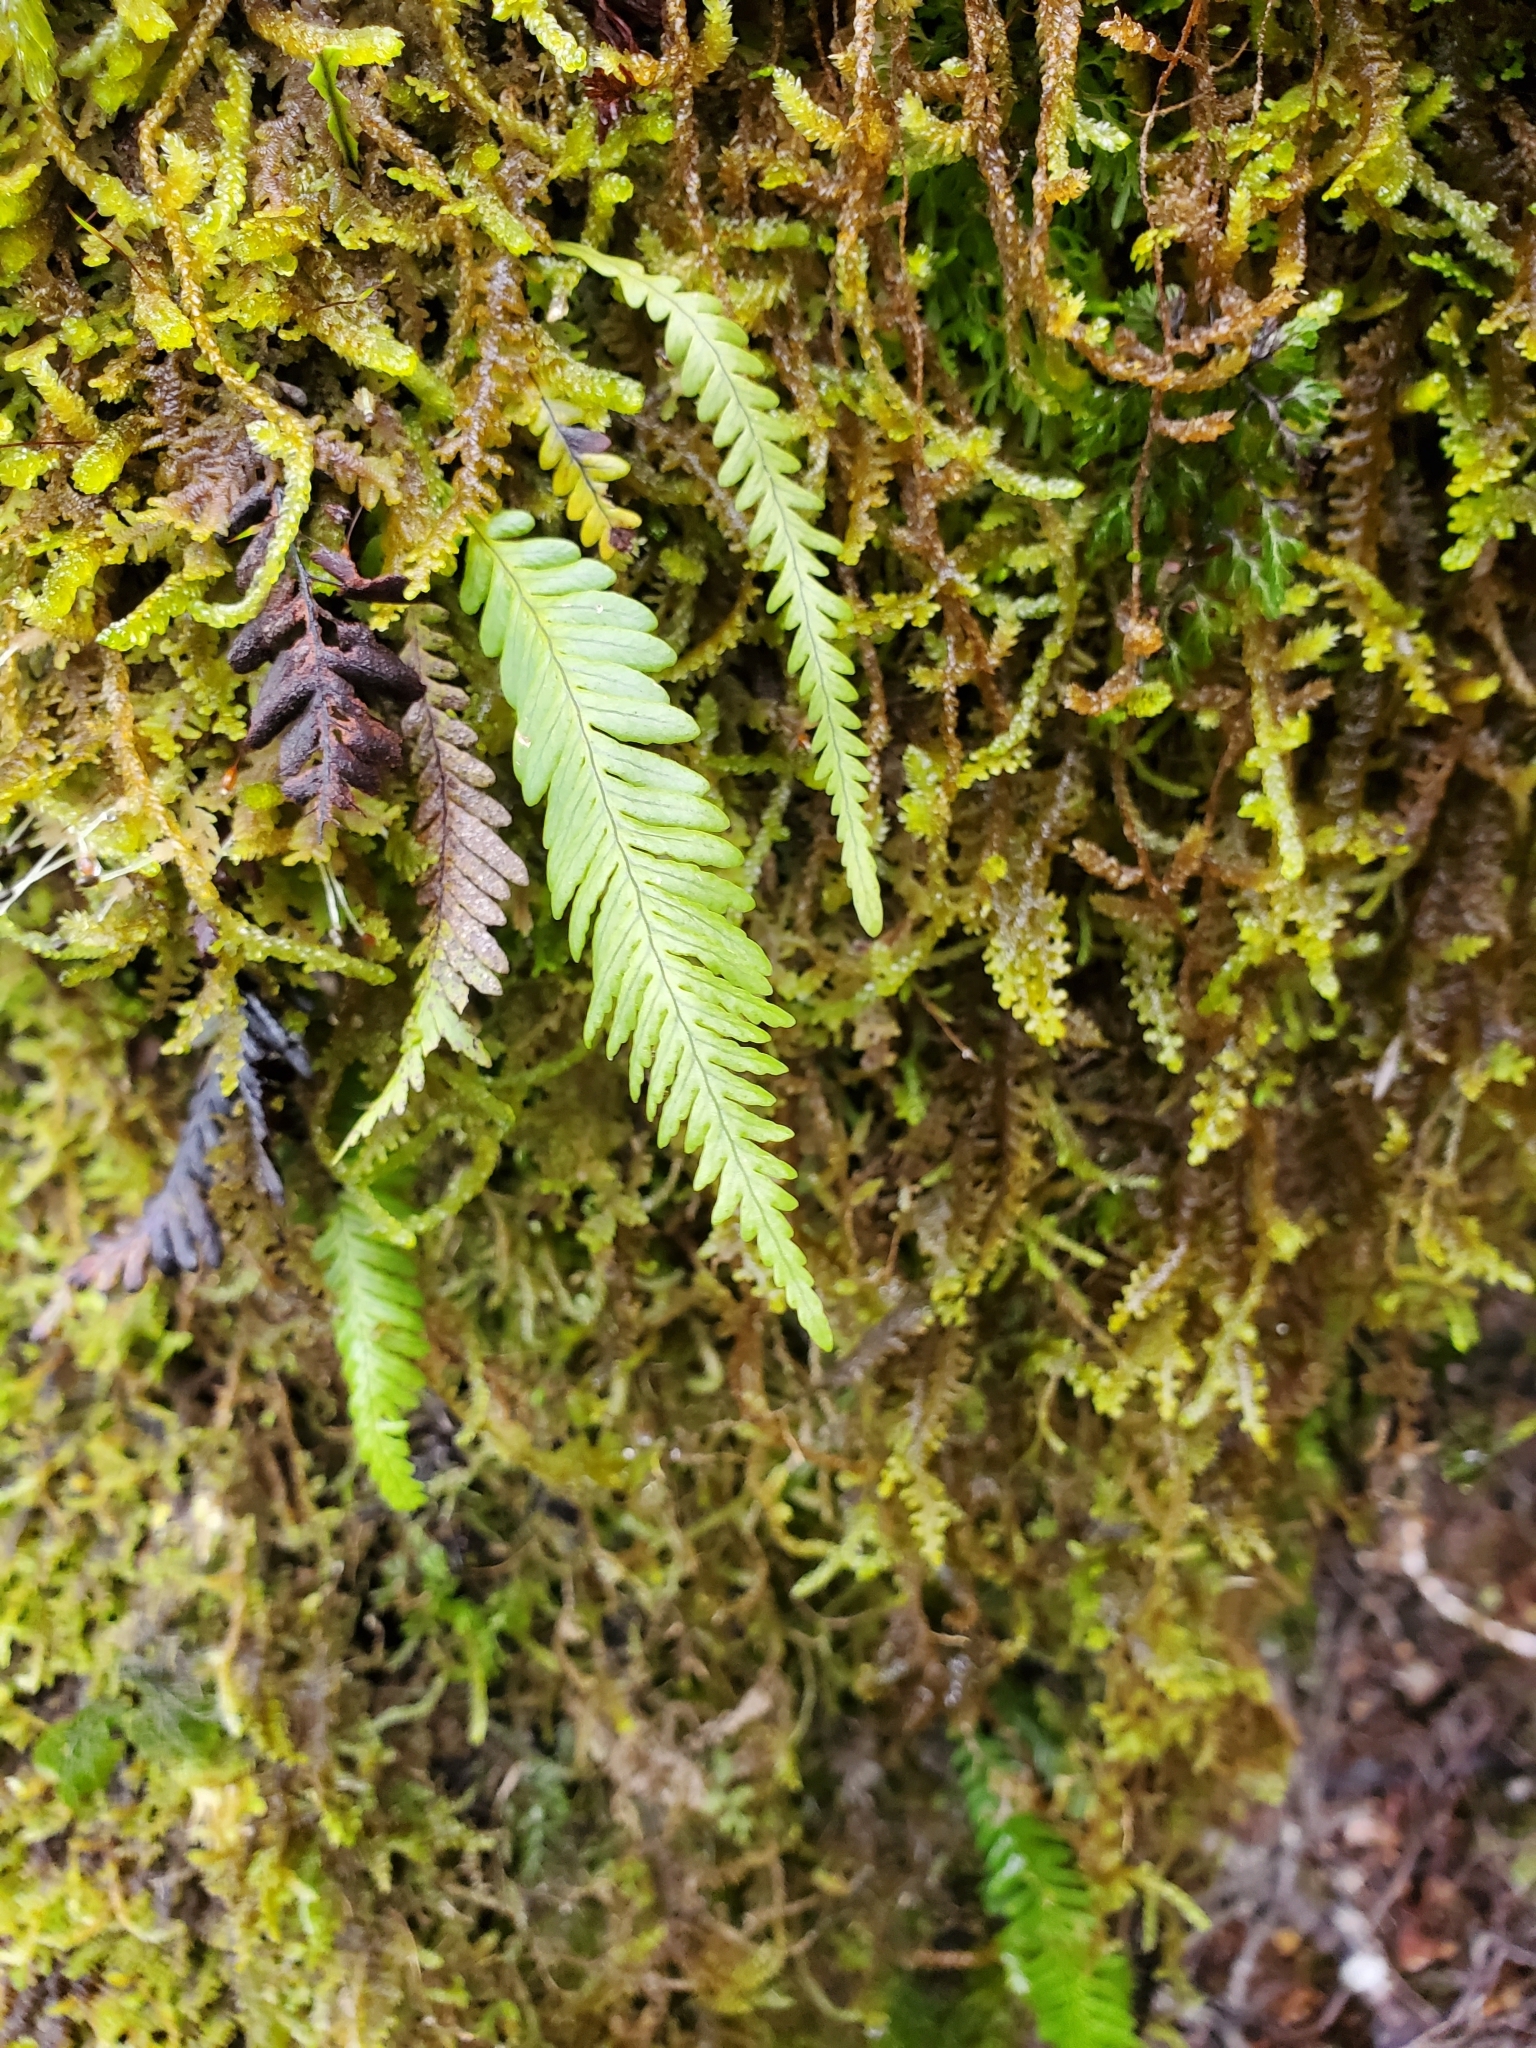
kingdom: Plantae
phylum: Tracheophyta
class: Polypodiopsida
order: Polypodiales
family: Polypodiaceae
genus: Notogrammitis
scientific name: Notogrammitis heterophylla
